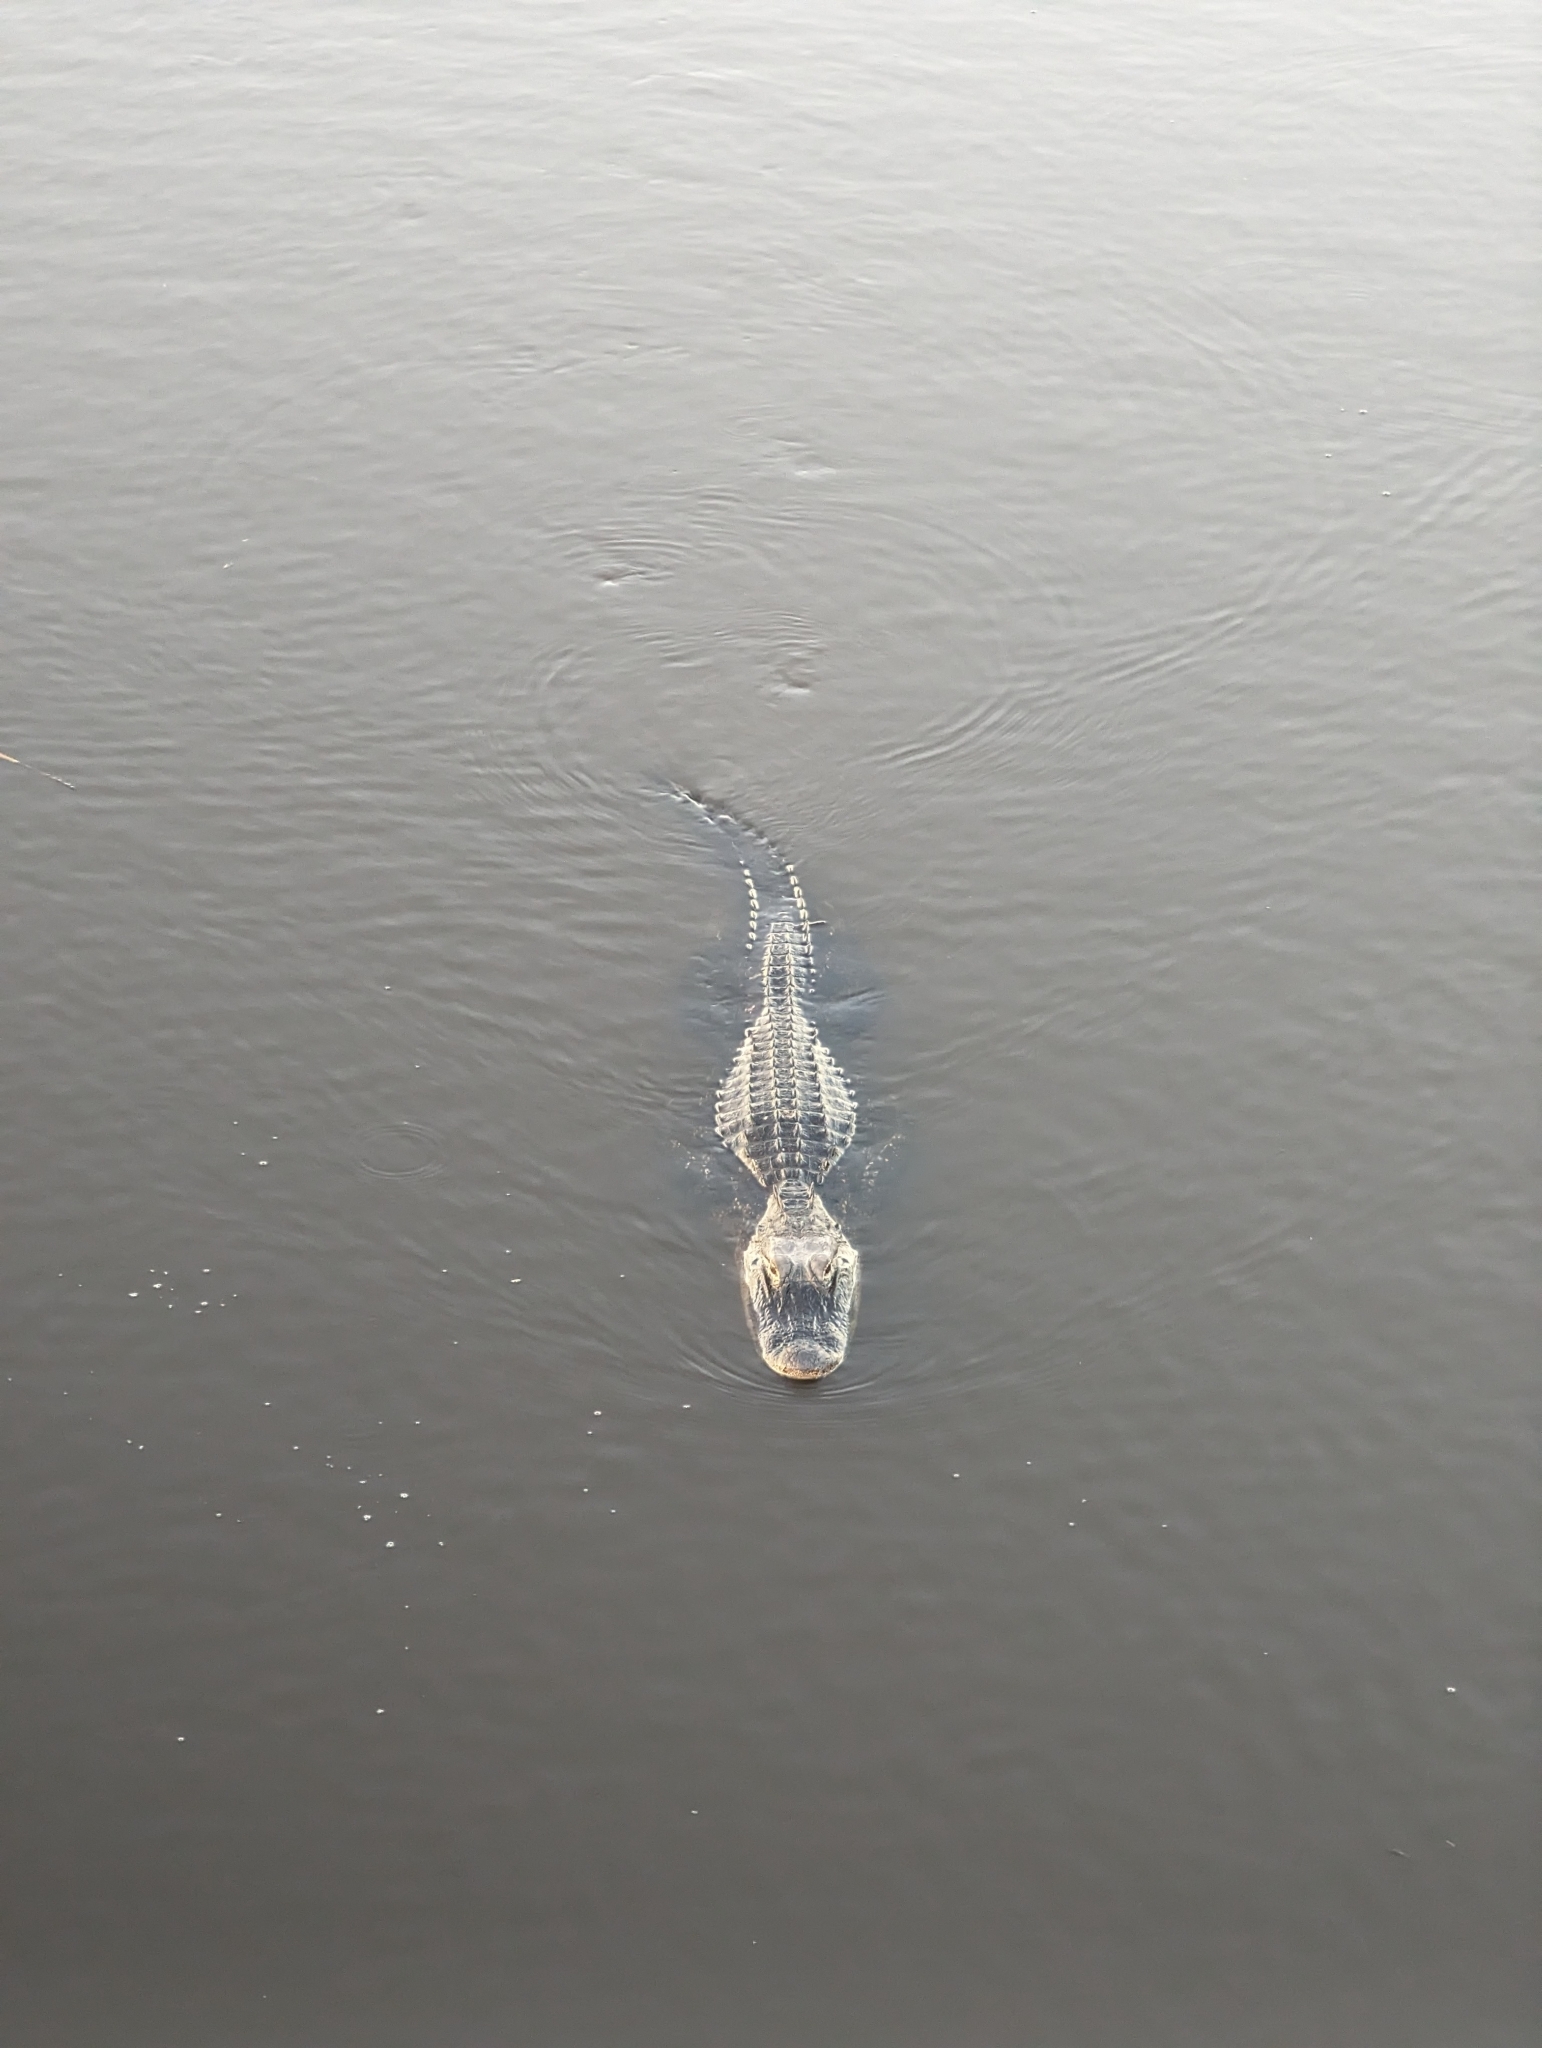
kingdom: Animalia
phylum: Chordata
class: Crocodylia
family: Alligatoridae
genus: Alligator
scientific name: Alligator mississippiensis
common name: American alligator
